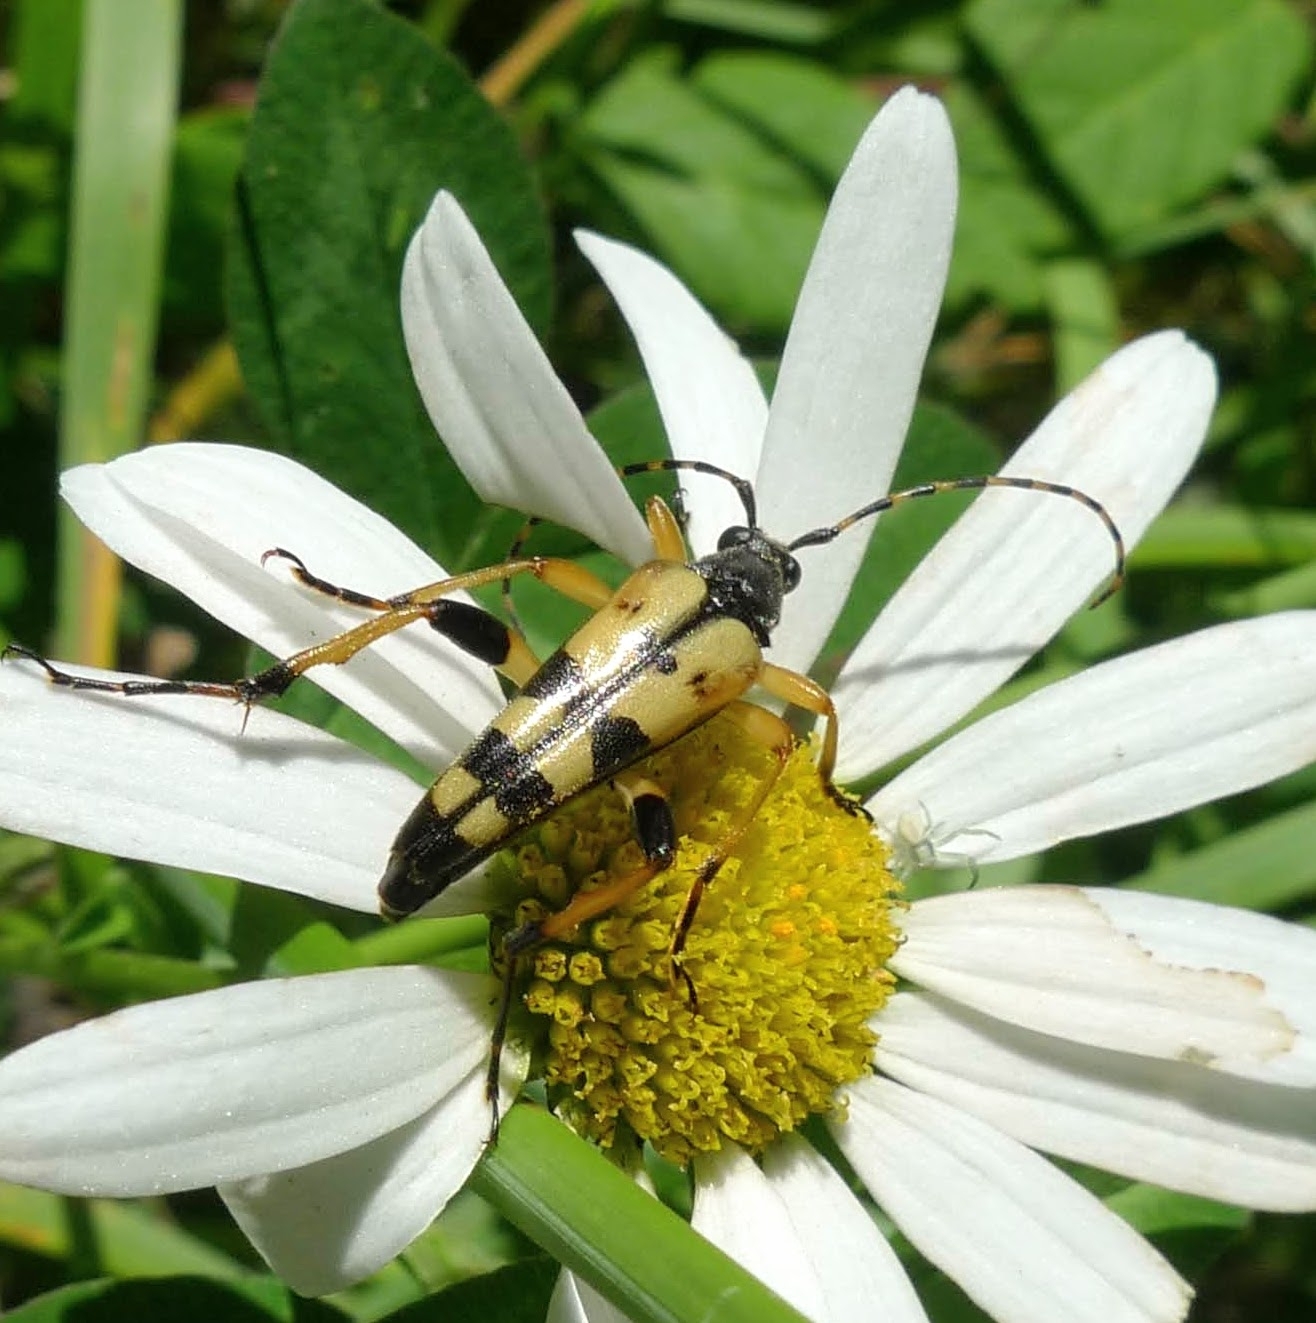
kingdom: Animalia
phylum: Arthropoda
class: Insecta
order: Coleoptera
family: Cerambycidae
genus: Rutpela
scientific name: Rutpela maculata
